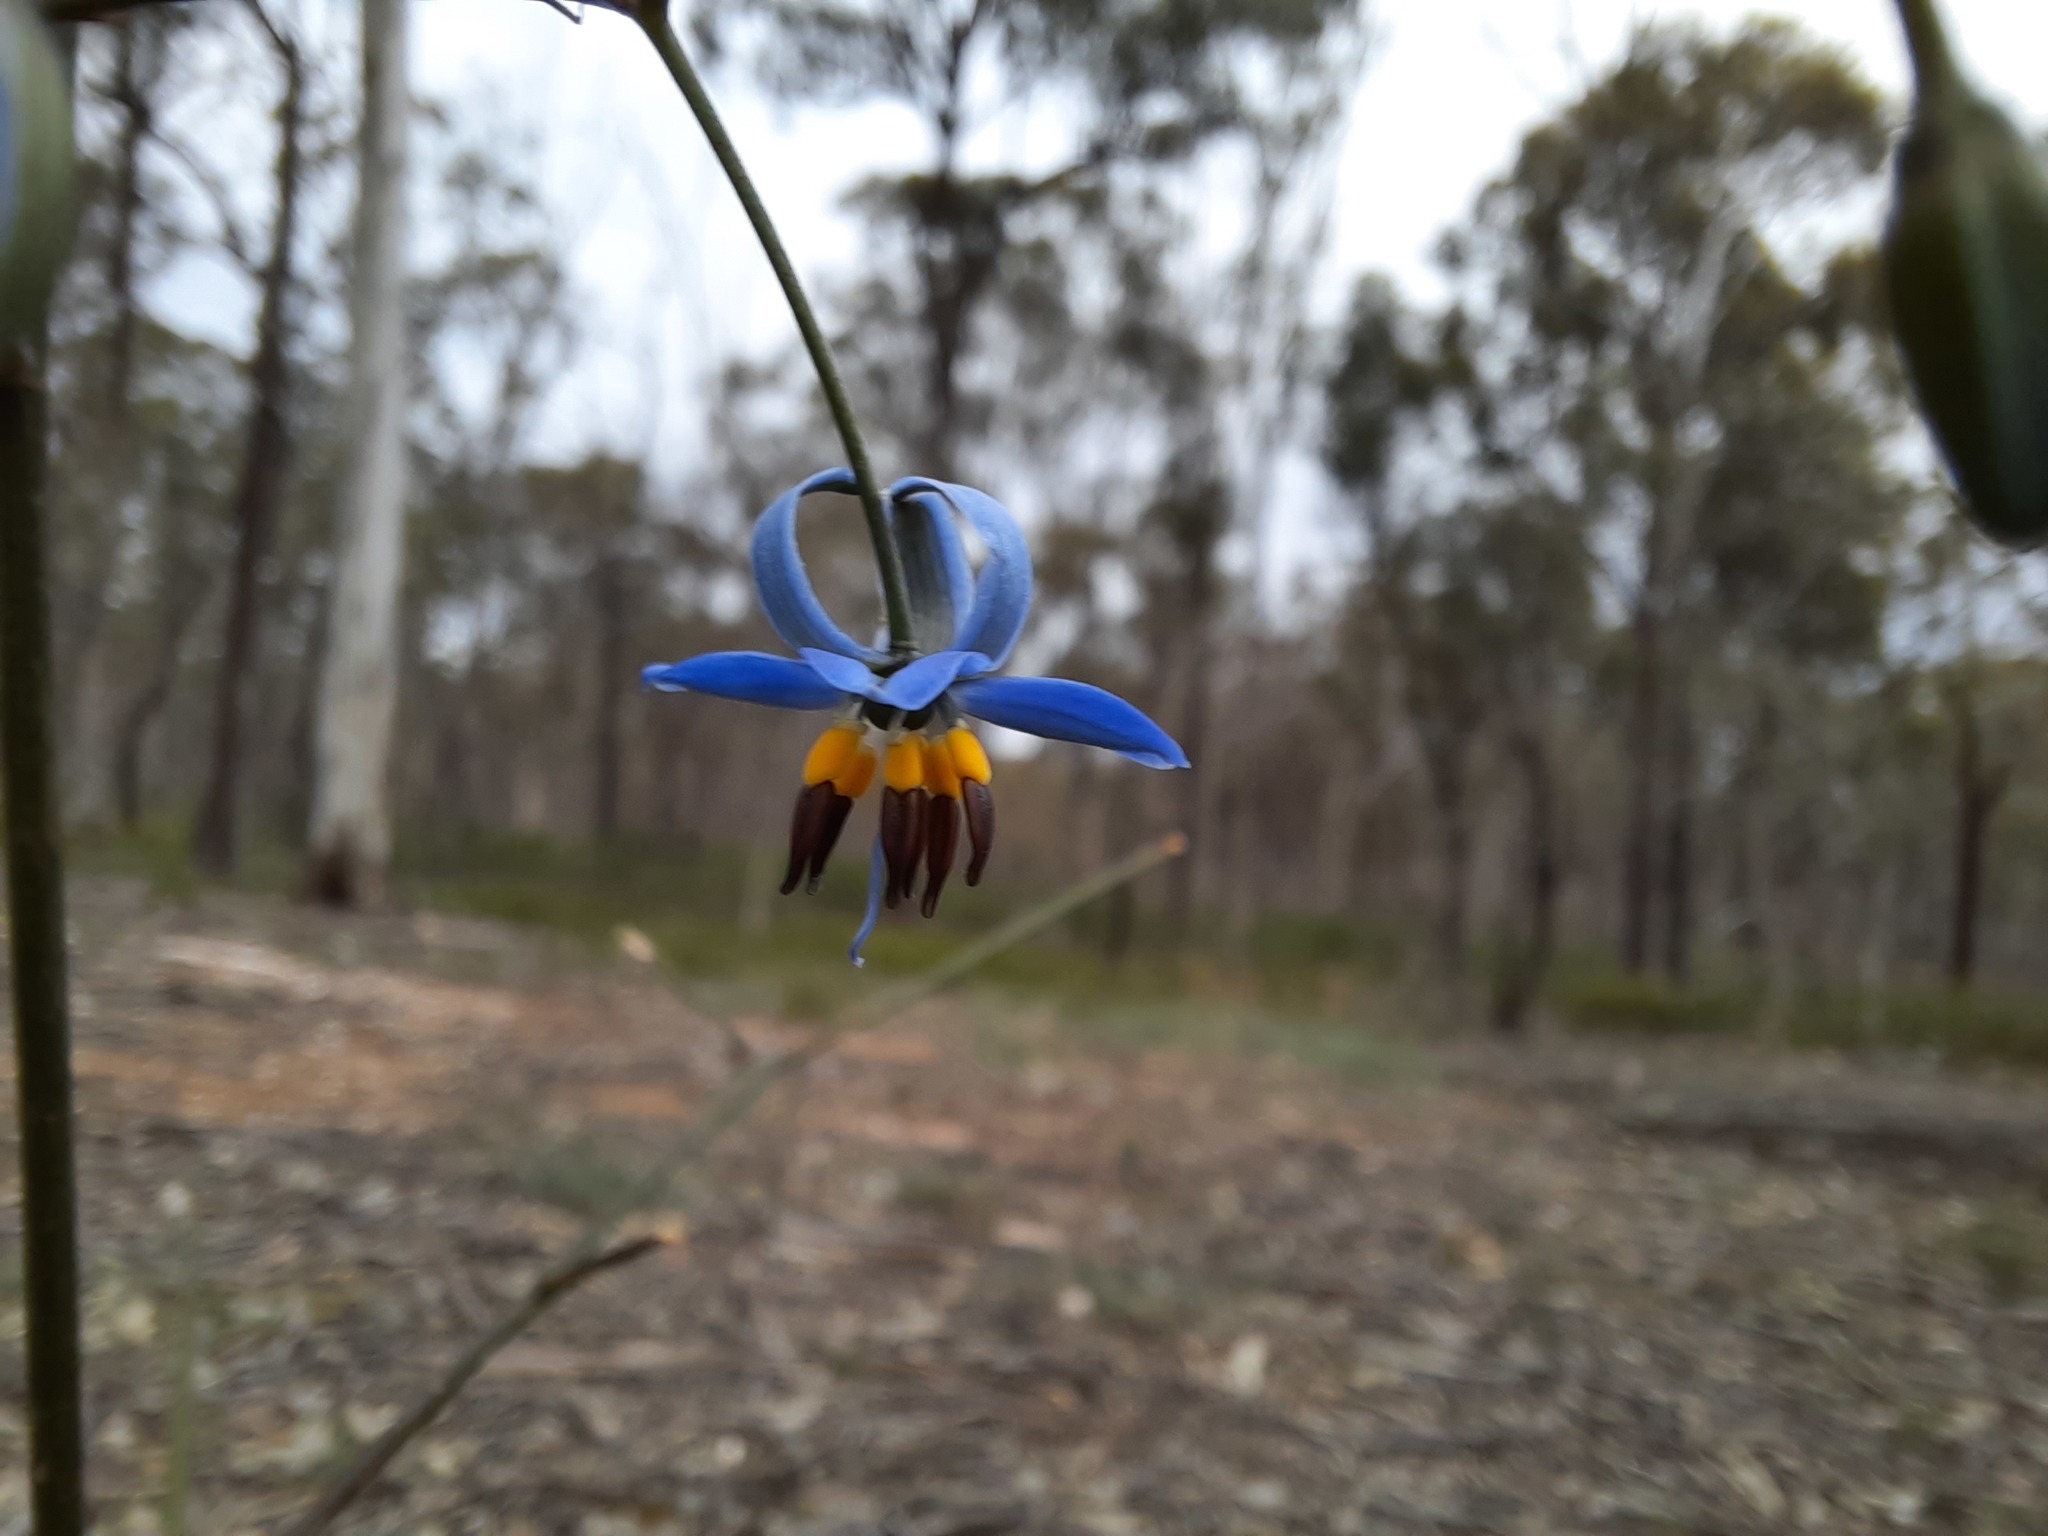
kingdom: Plantae
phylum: Tracheophyta
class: Liliopsida
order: Asparagales
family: Asphodelaceae
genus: Dianella
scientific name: Dianella revoluta
